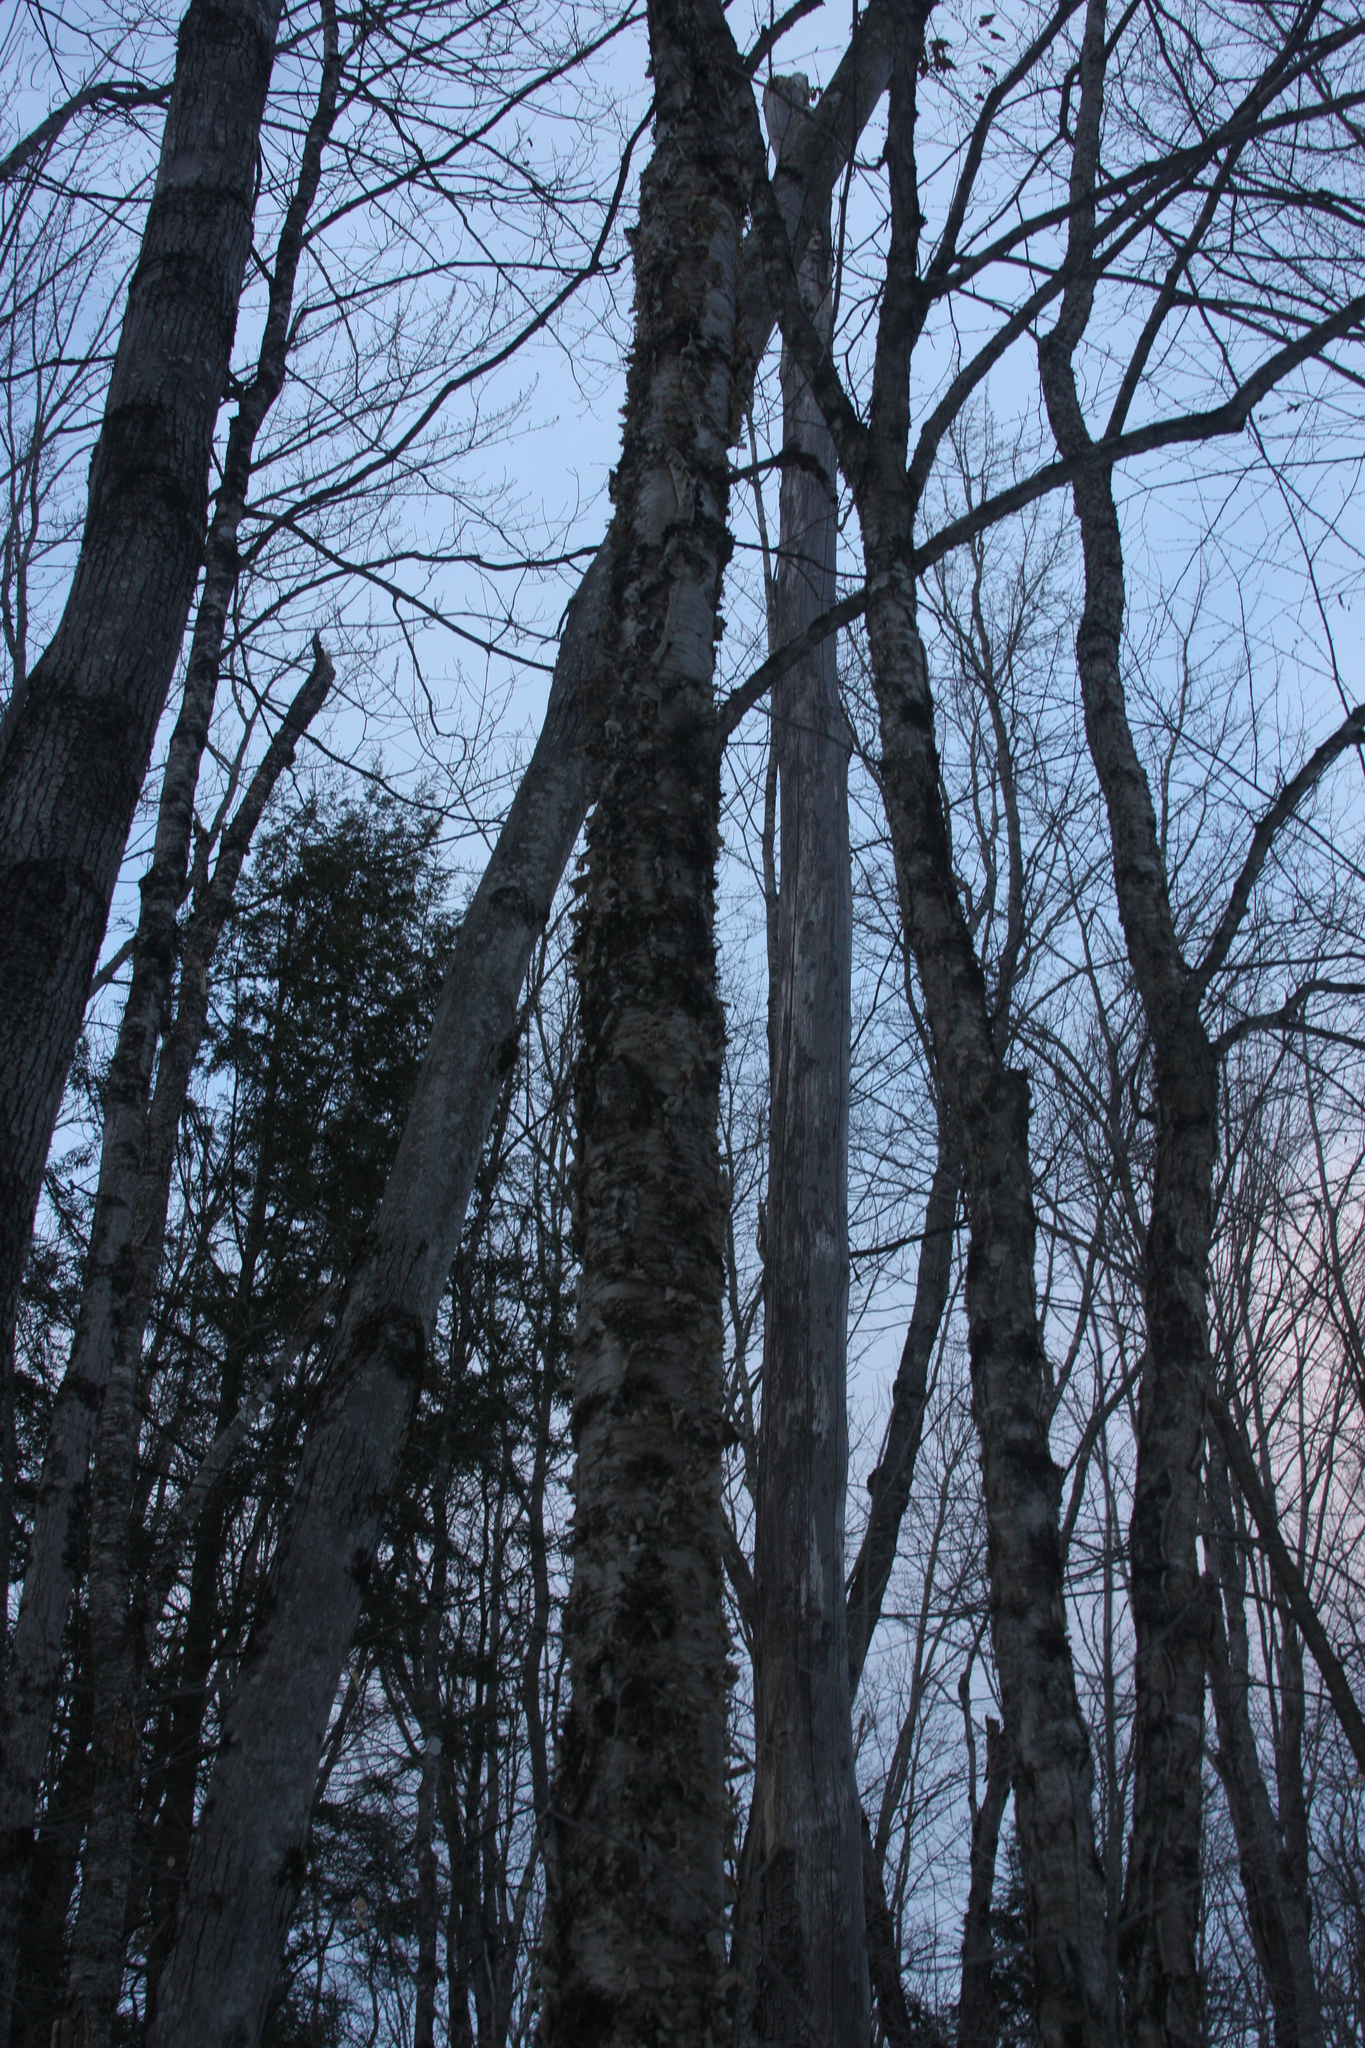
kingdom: Plantae
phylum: Tracheophyta
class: Magnoliopsida
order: Fagales
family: Betulaceae
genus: Betula
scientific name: Betula alleghaniensis
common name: Yellow birch
